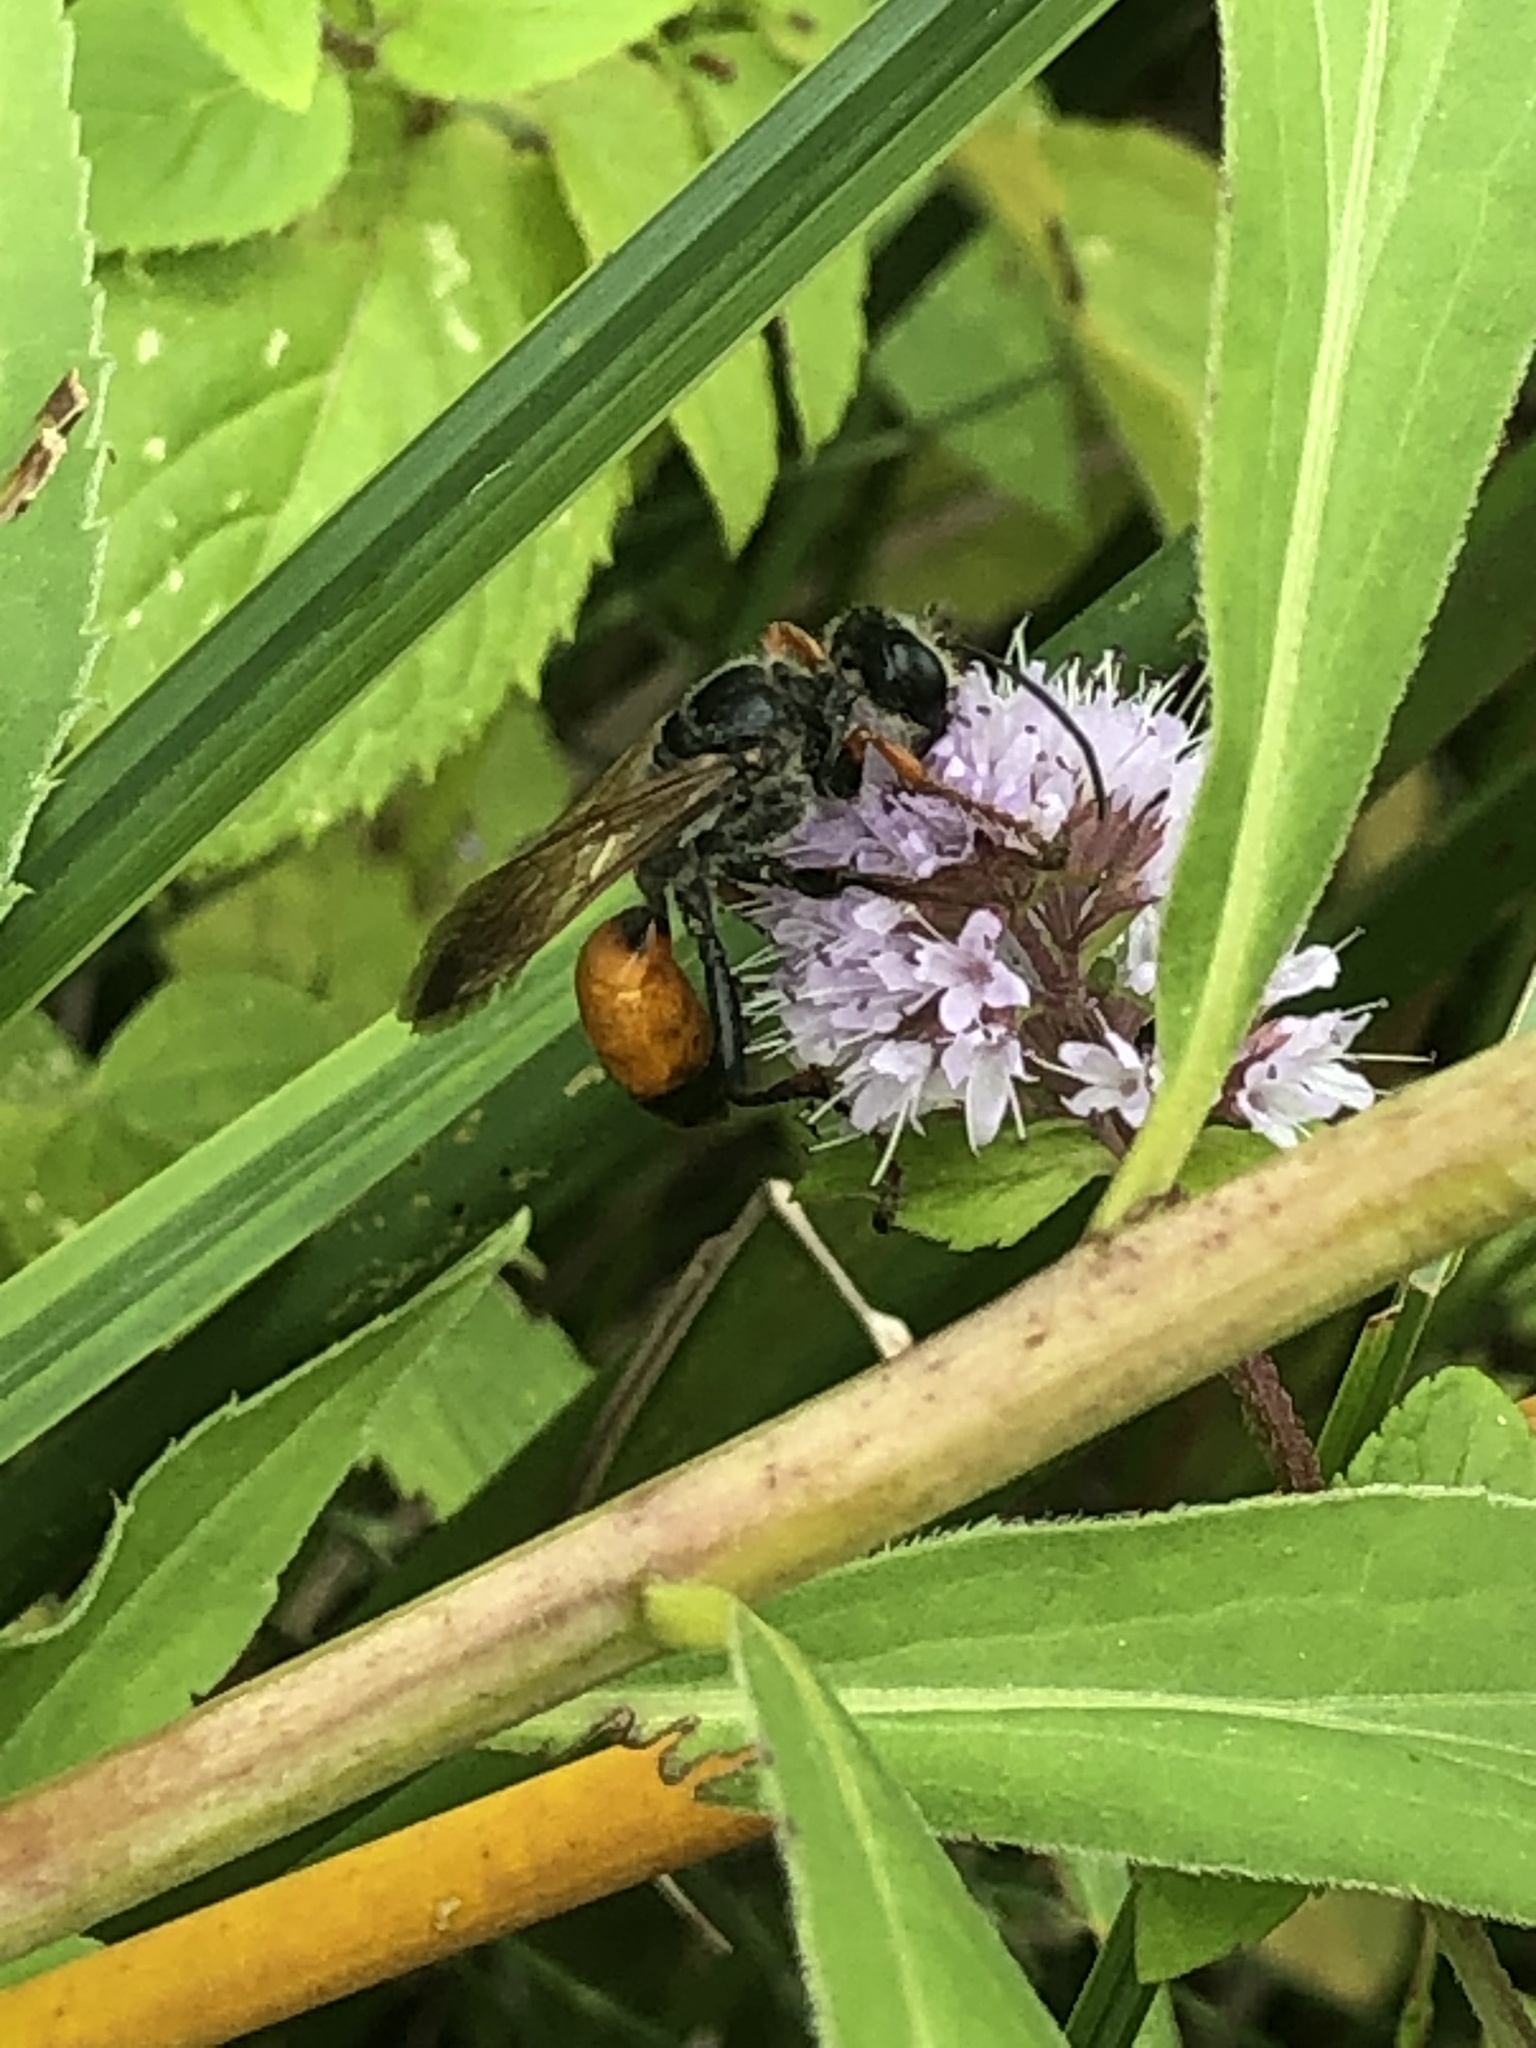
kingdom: Animalia
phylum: Arthropoda
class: Insecta
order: Hymenoptera
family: Sphecidae
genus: Sphex
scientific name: Sphex funerarius
